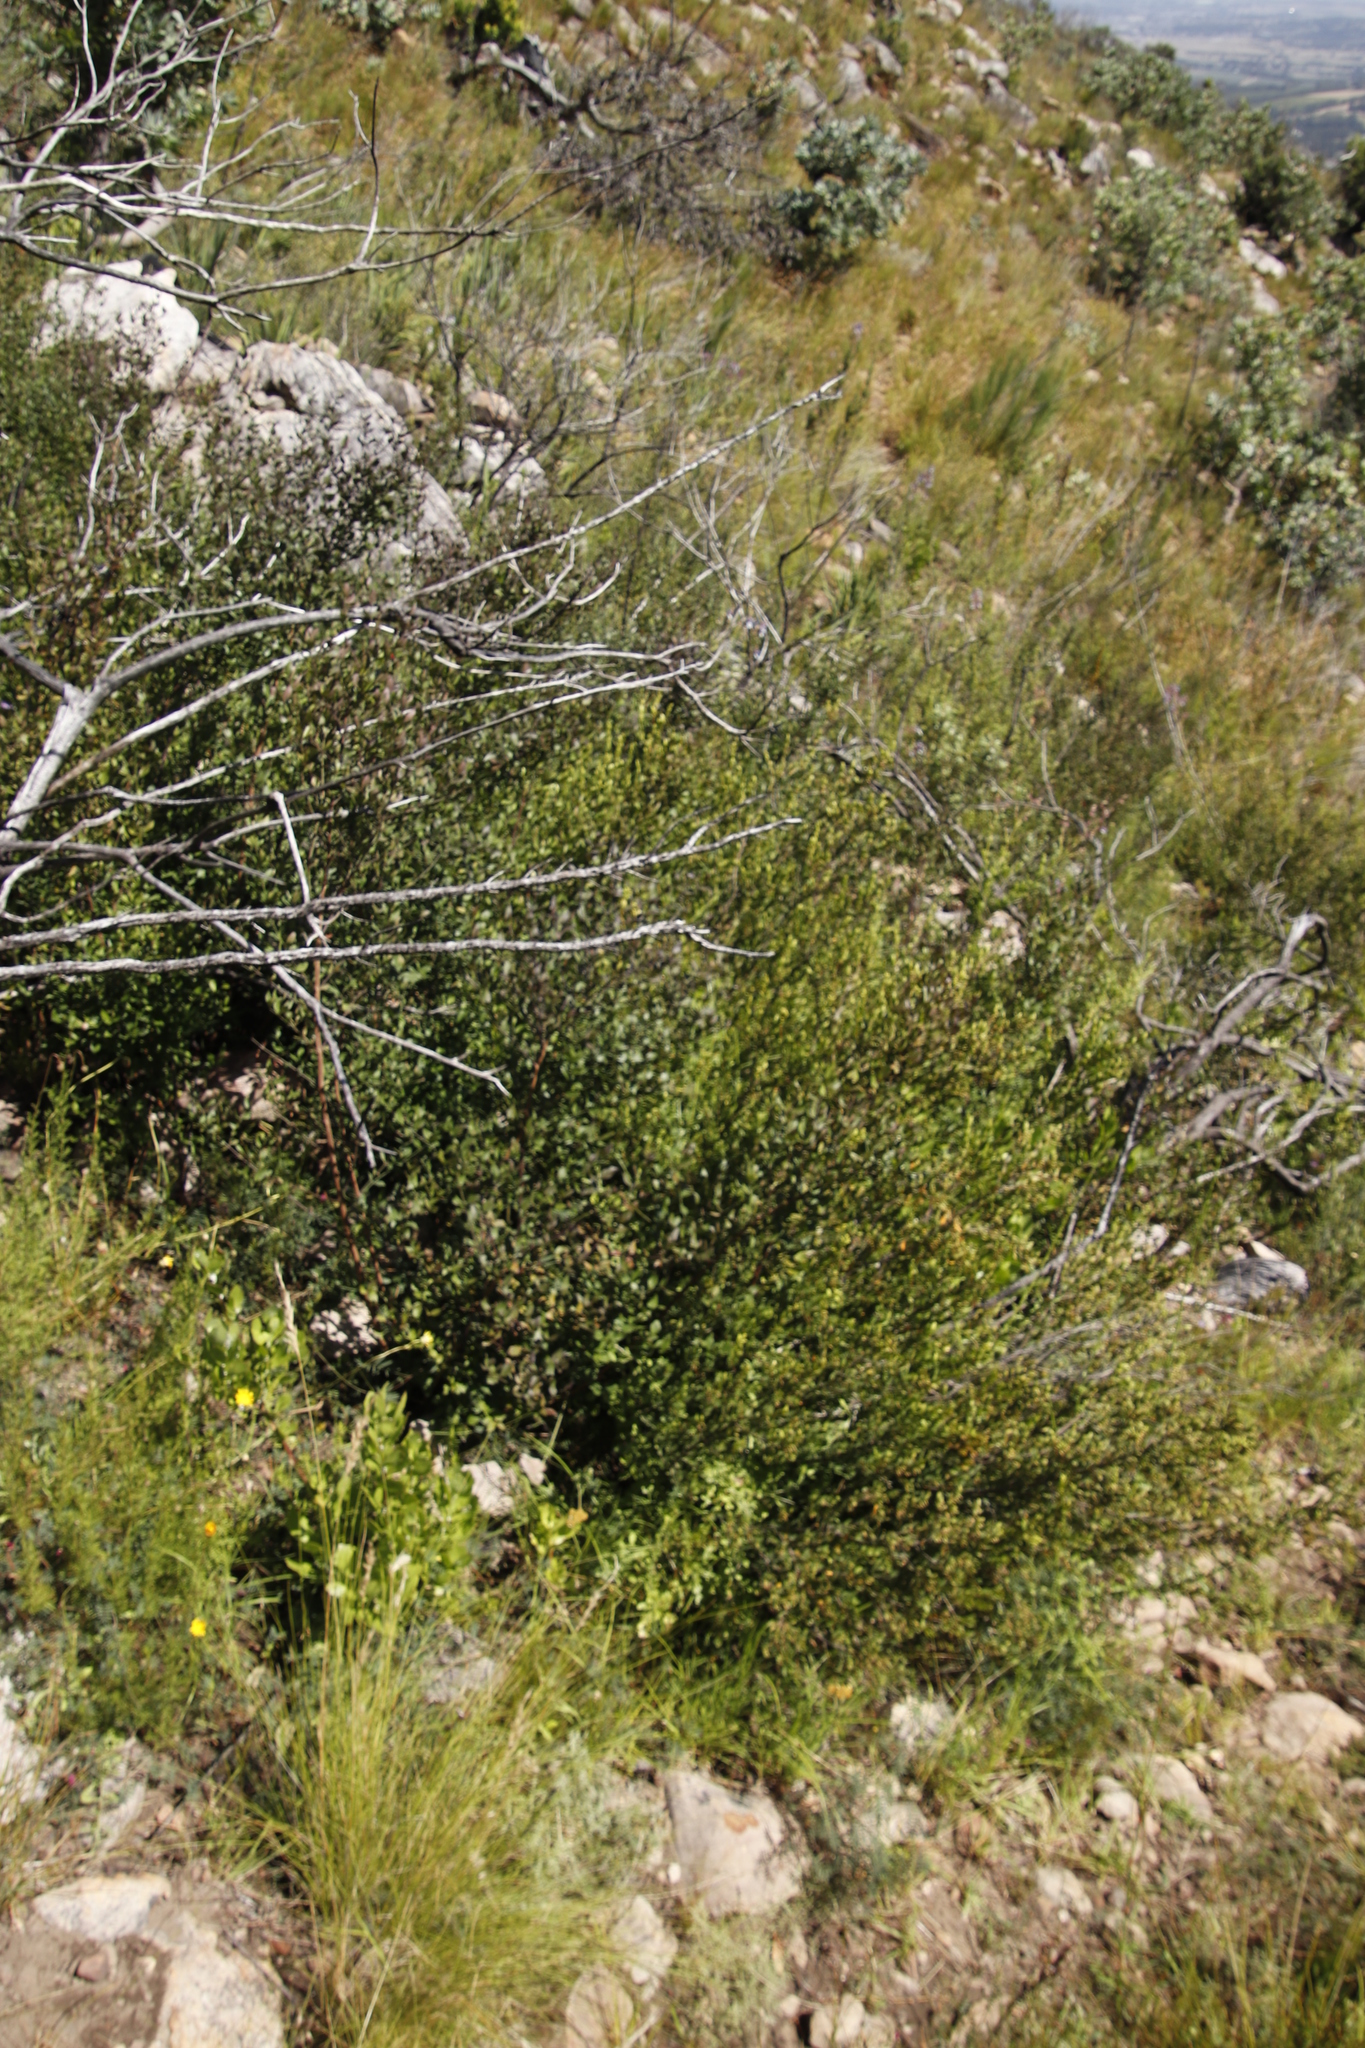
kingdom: Plantae
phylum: Tracheophyta
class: Magnoliopsida
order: Lamiales
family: Stilbaceae
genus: Halleria
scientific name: Halleria elliptica
